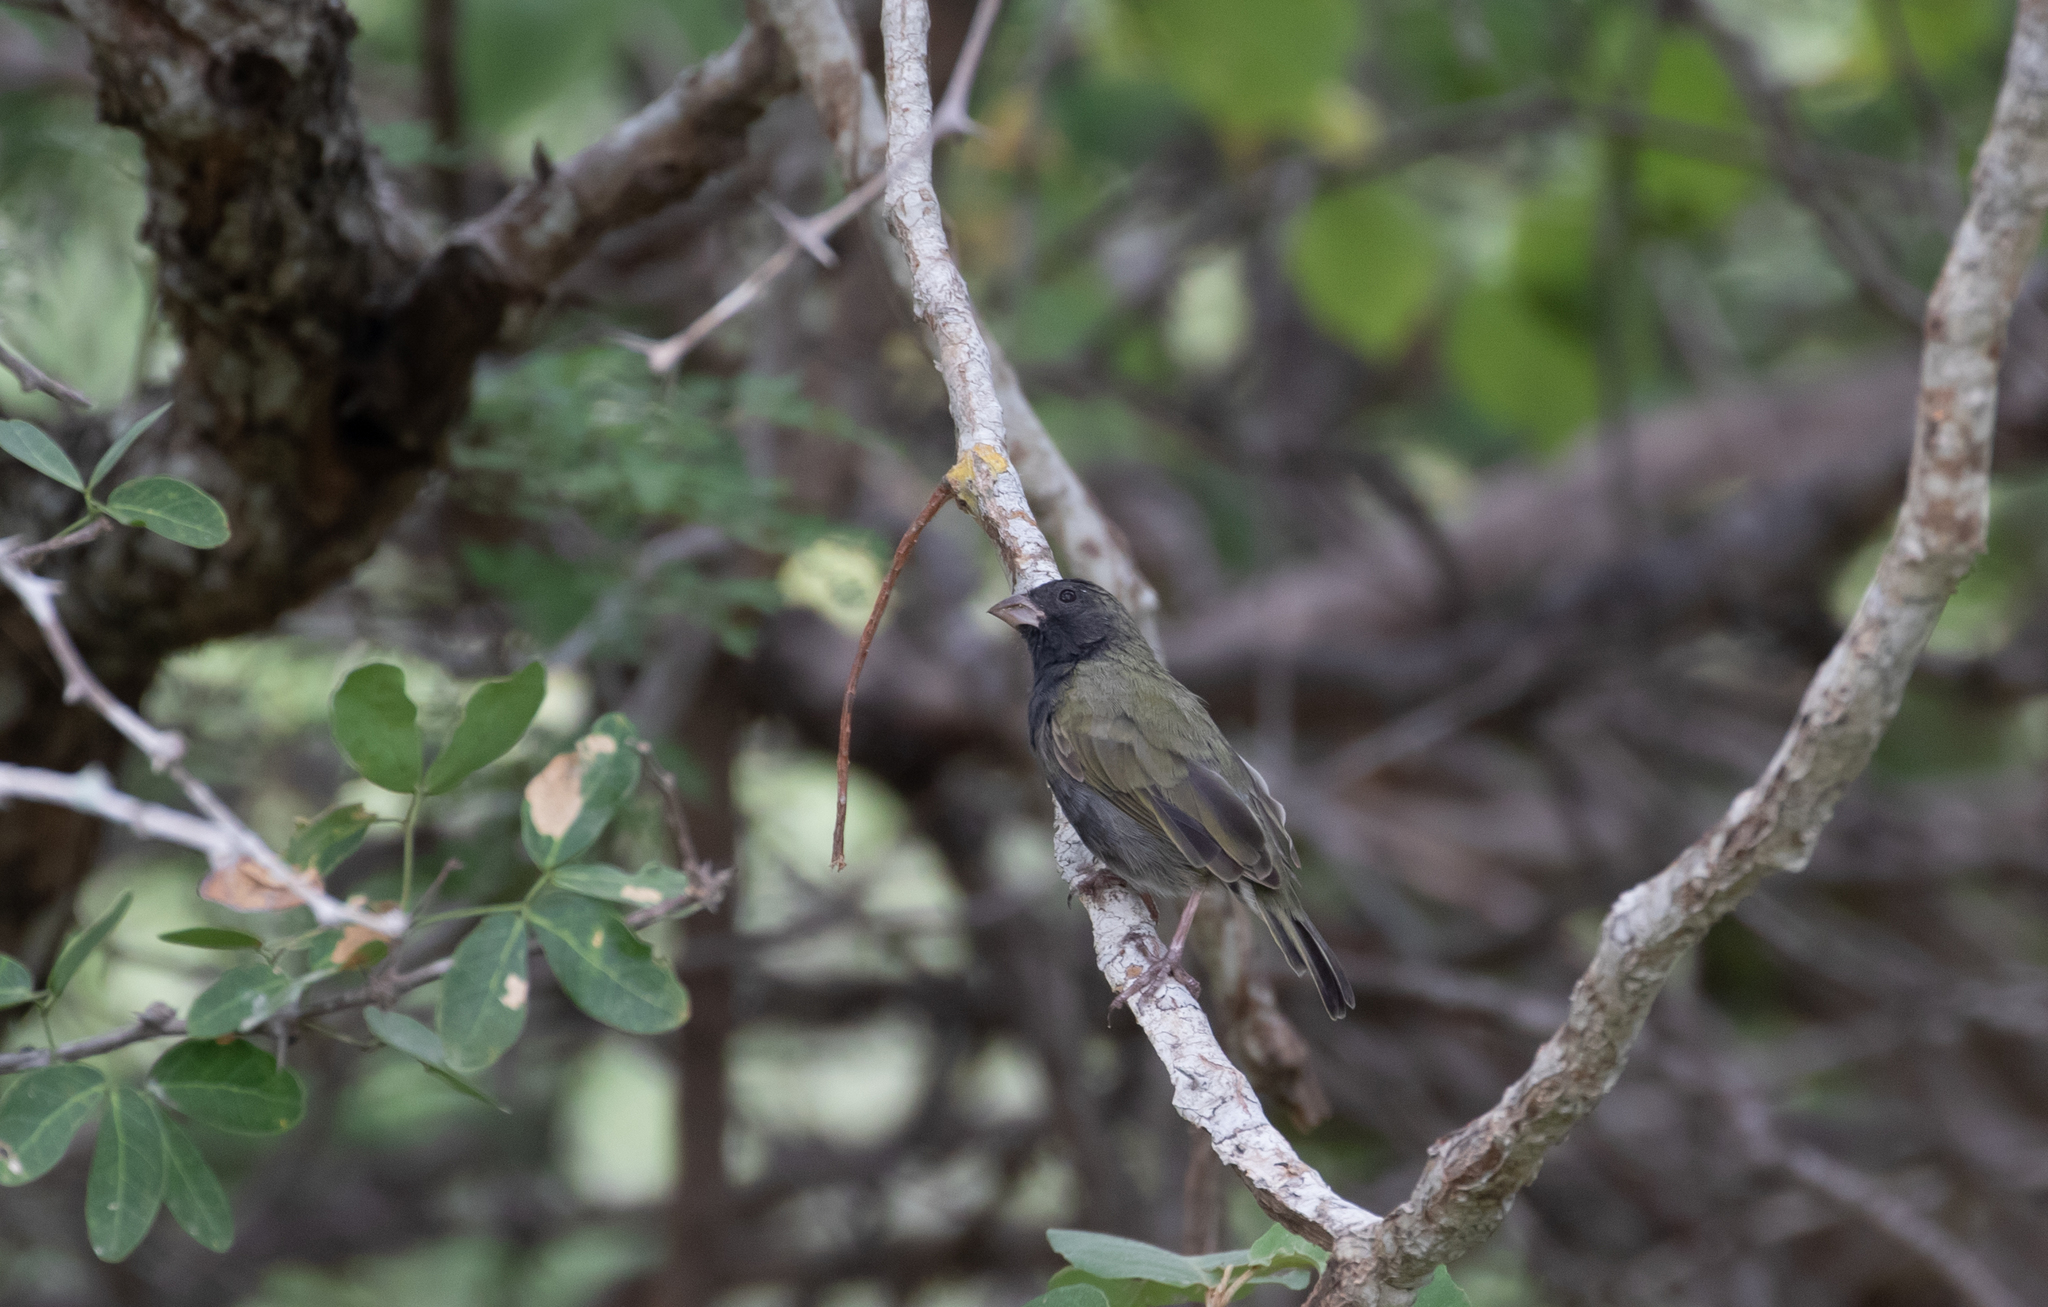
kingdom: Animalia
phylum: Chordata
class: Aves
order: Passeriformes
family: Thraupidae
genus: Melanospiza
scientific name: Melanospiza bicolor
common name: Black-faced grassquit
